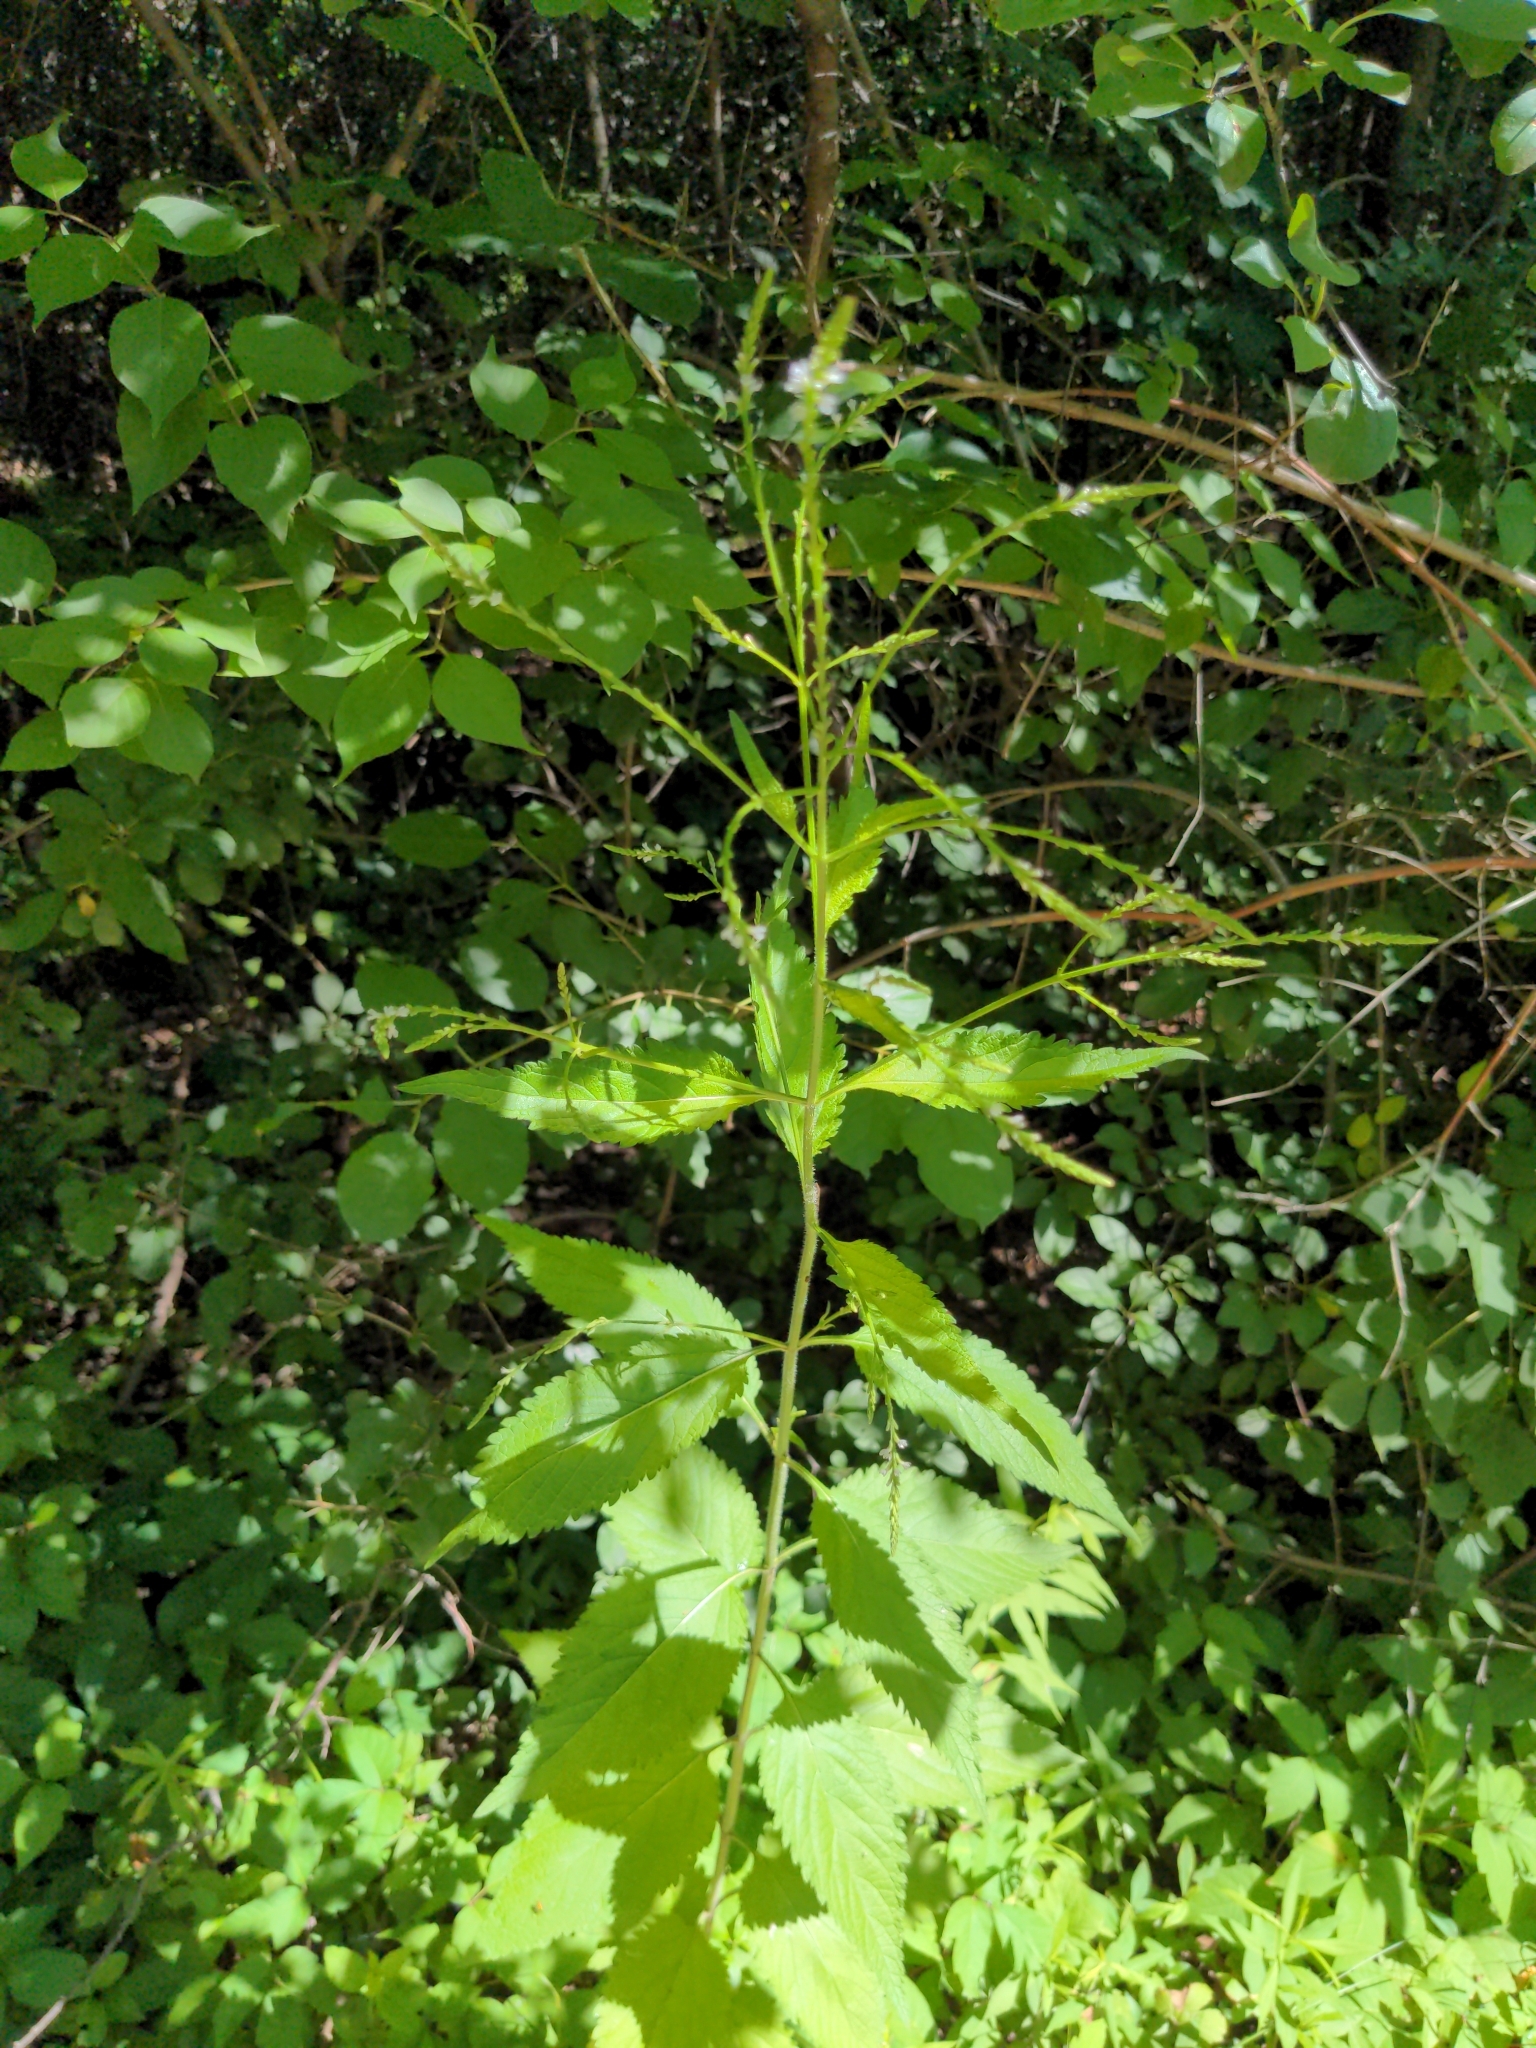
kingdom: Plantae
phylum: Tracheophyta
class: Magnoliopsida
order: Lamiales
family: Verbenaceae
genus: Verbena
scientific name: Verbena urticifolia
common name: Nettle-leaved vervain
